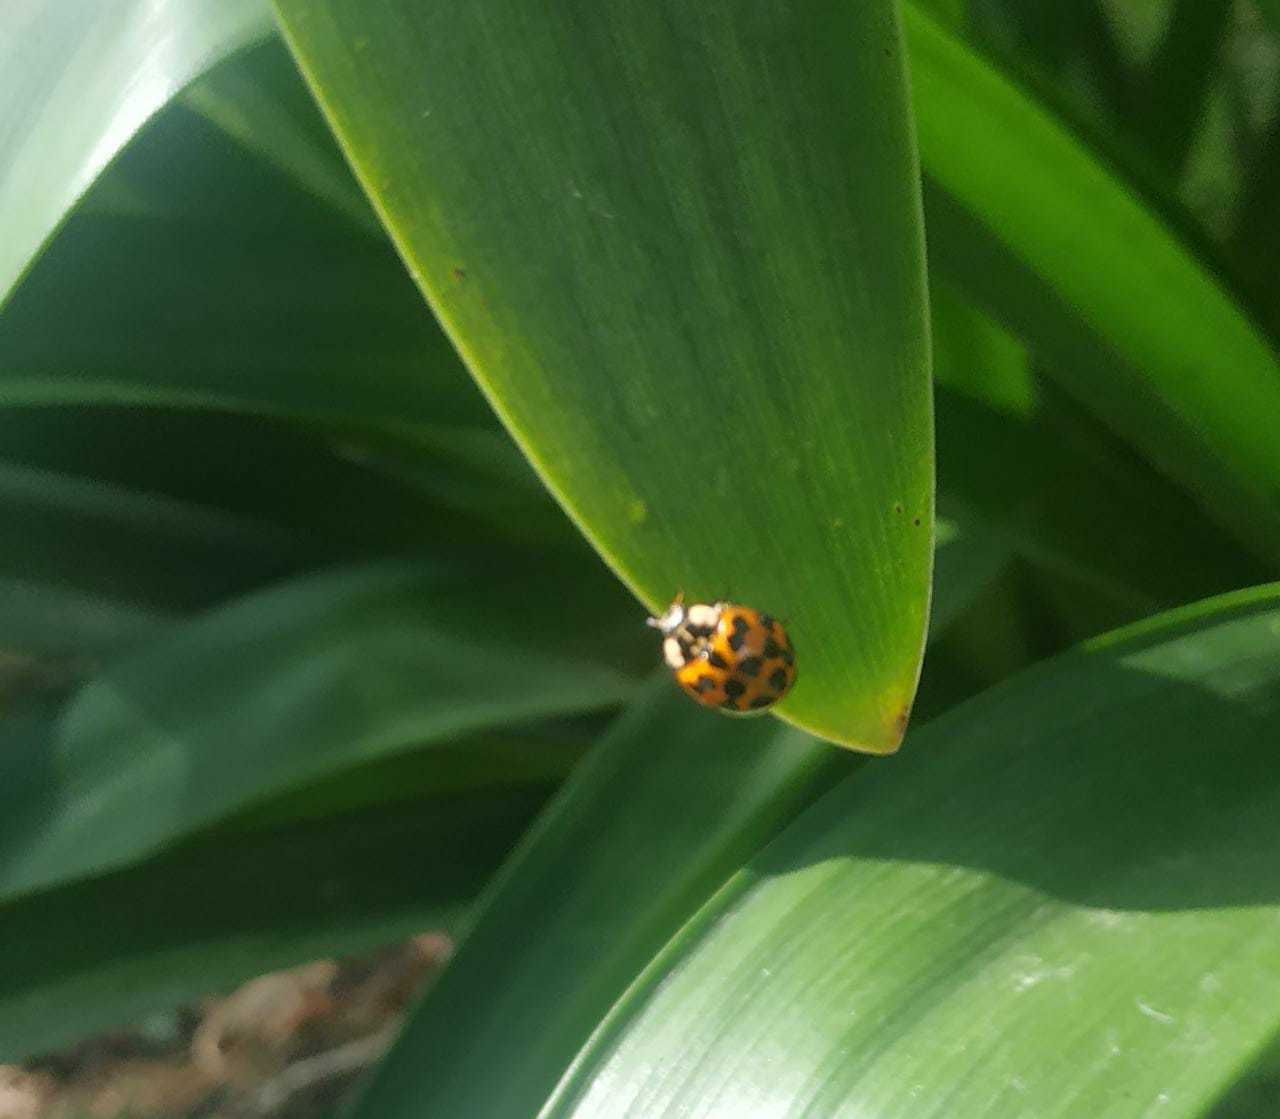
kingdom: Animalia
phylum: Arthropoda
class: Insecta
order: Coleoptera
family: Coccinellidae
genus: Harmonia
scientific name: Harmonia axyridis
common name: Harlequin ladybird
